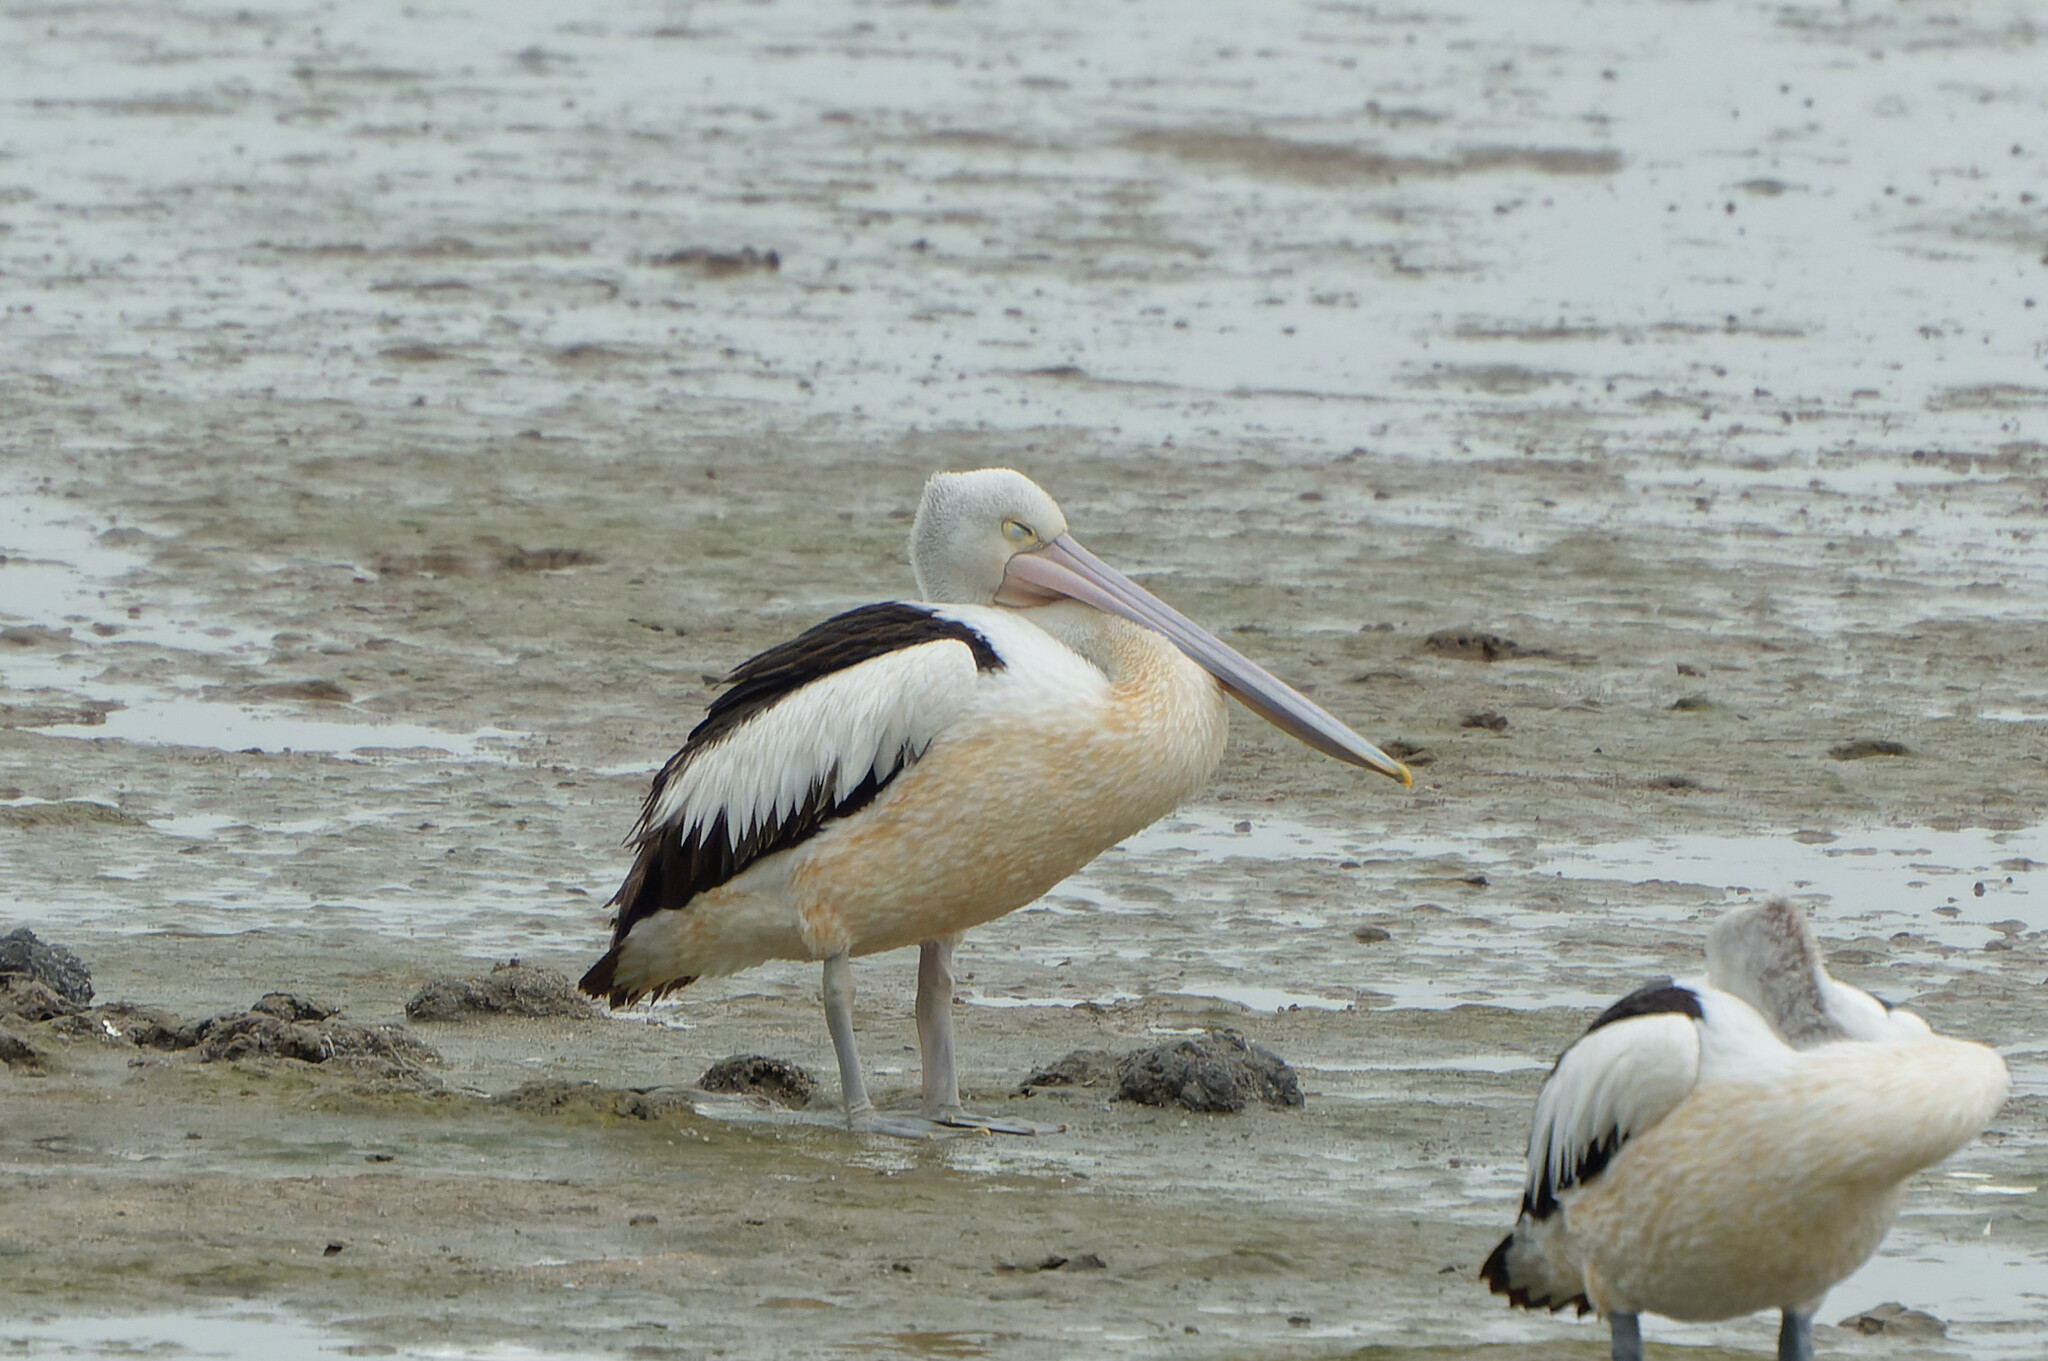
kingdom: Animalia
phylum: Chordata
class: Aves
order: Pelecaniformes
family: Pelecanidae
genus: Pelecanus
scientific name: Pelecanus conspicillatus
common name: Australian pelican
